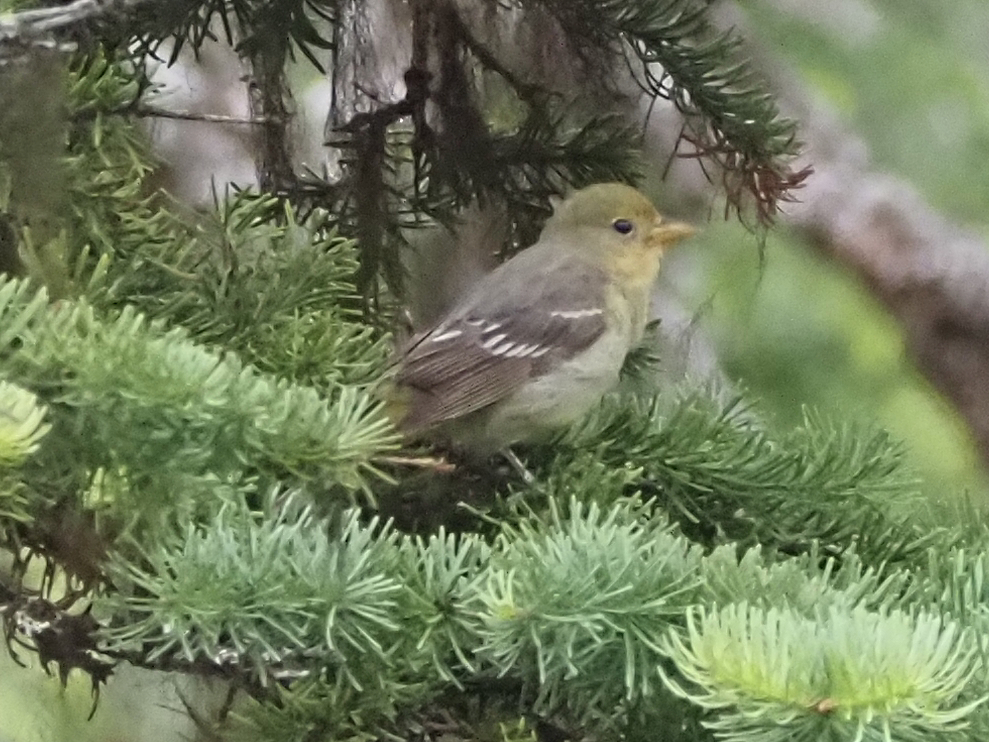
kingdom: Animalia
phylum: Chordata
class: Aves
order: Passeriformes
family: Cardinalidae
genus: Piranga
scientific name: Piranga ludoviciana
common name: Western tanager
